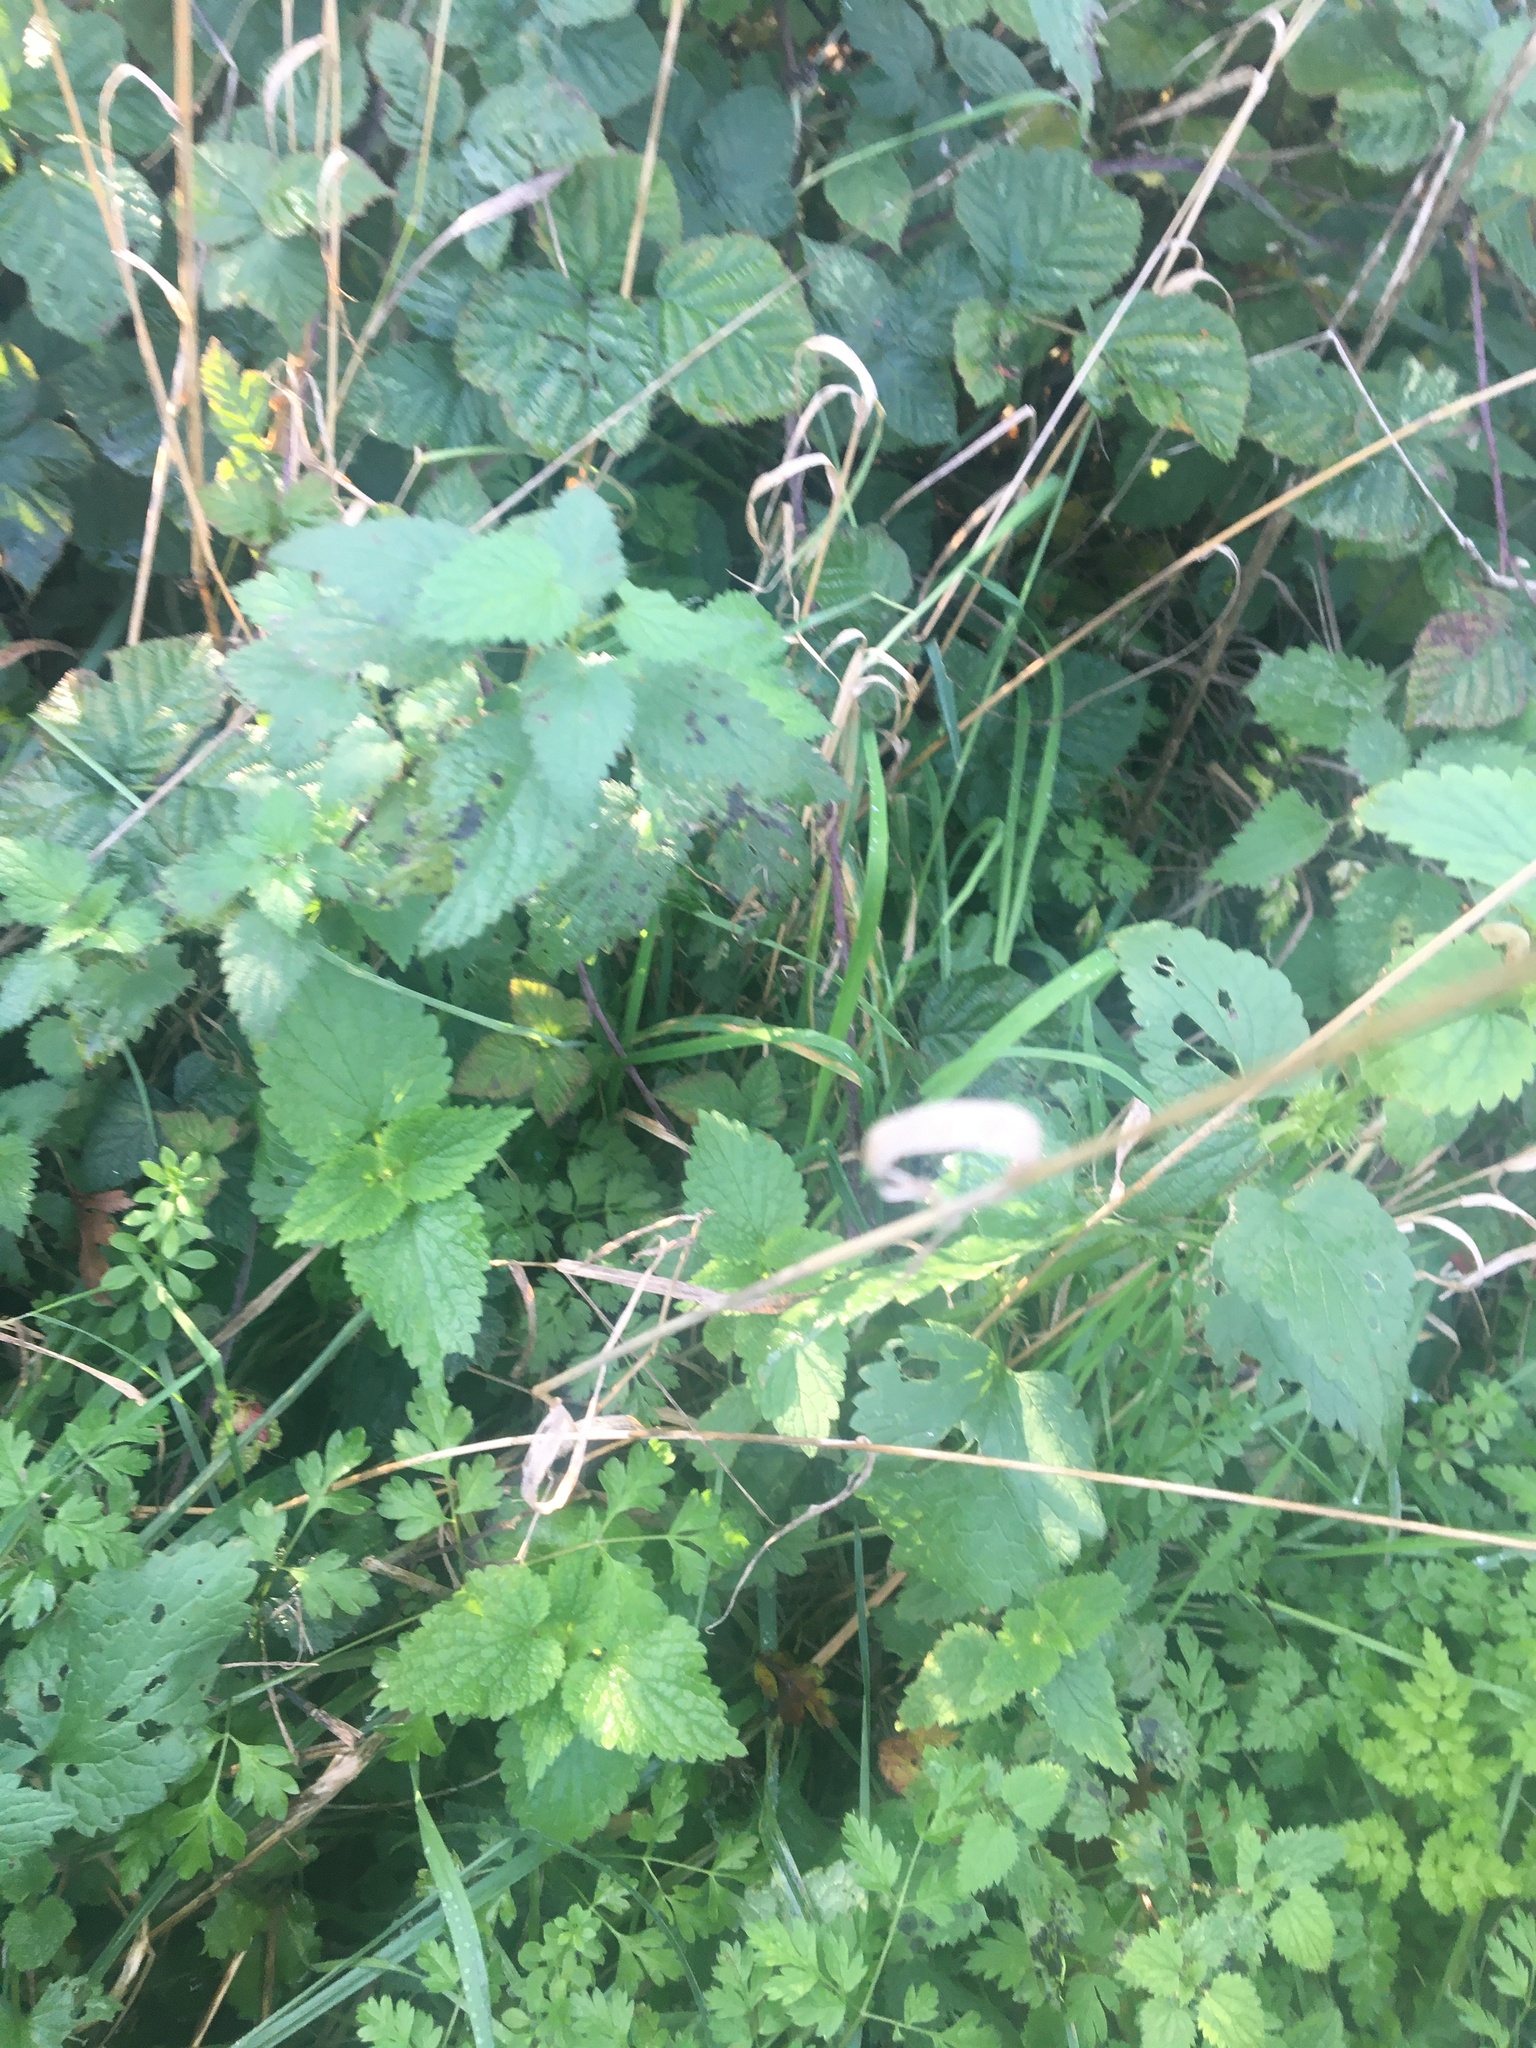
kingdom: Plantae
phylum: Tracheophyta
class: Magnoliopsida
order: Rosales
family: Urticaceae
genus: Urtica
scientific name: Urtica dioica
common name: Common nettle
